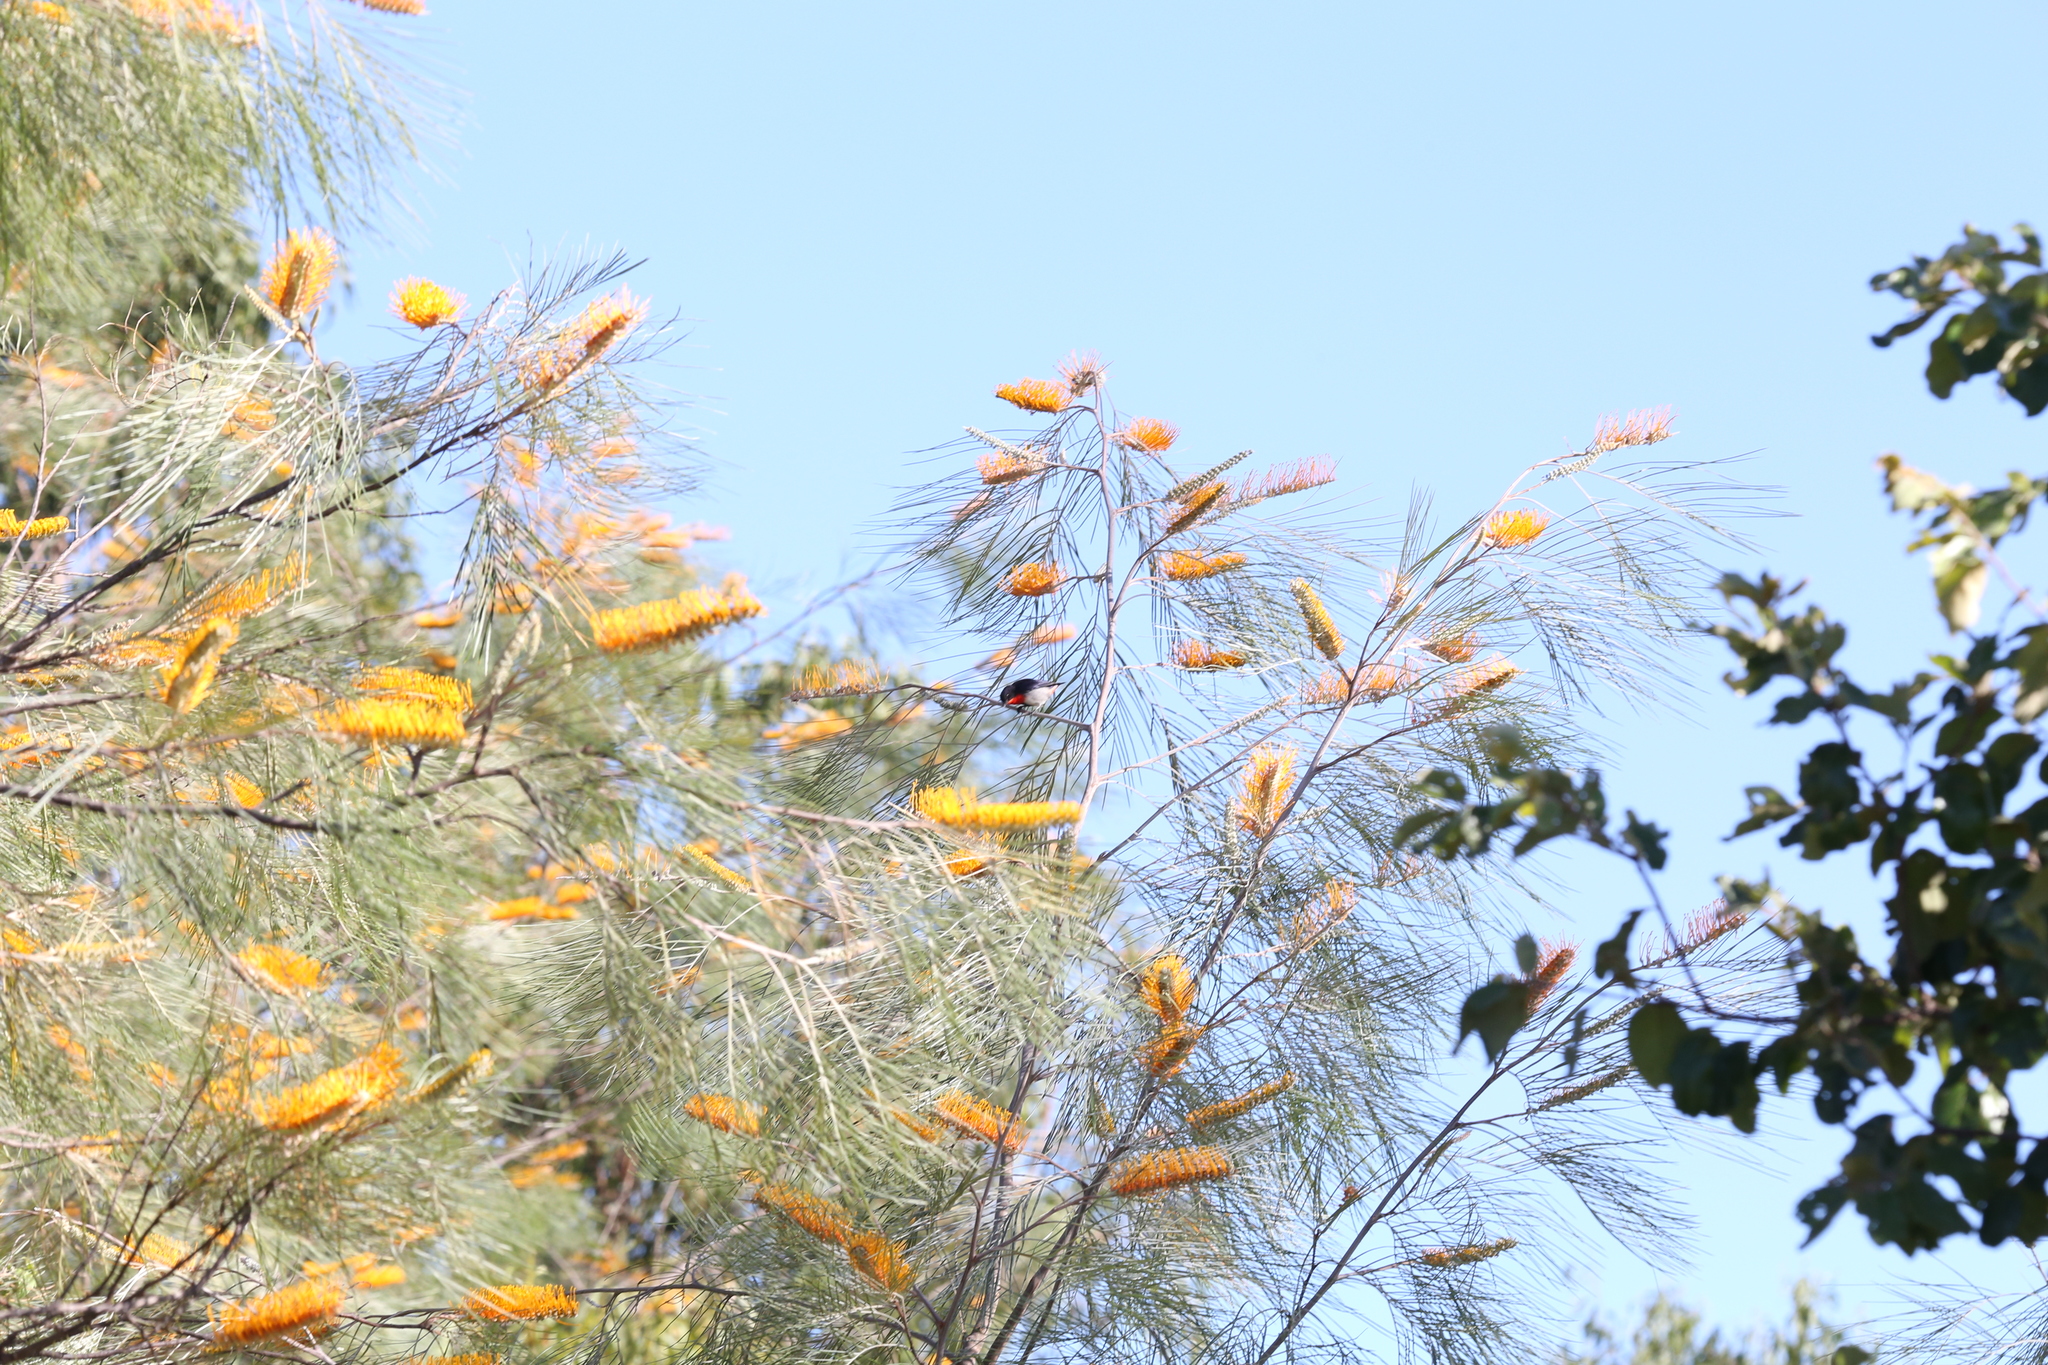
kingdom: Animalia
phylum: Chordata
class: Aves
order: Passeriformes
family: Dicaeidae
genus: Dicaeum
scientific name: Dicaeum hirundinaceum
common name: Mistletoebird
